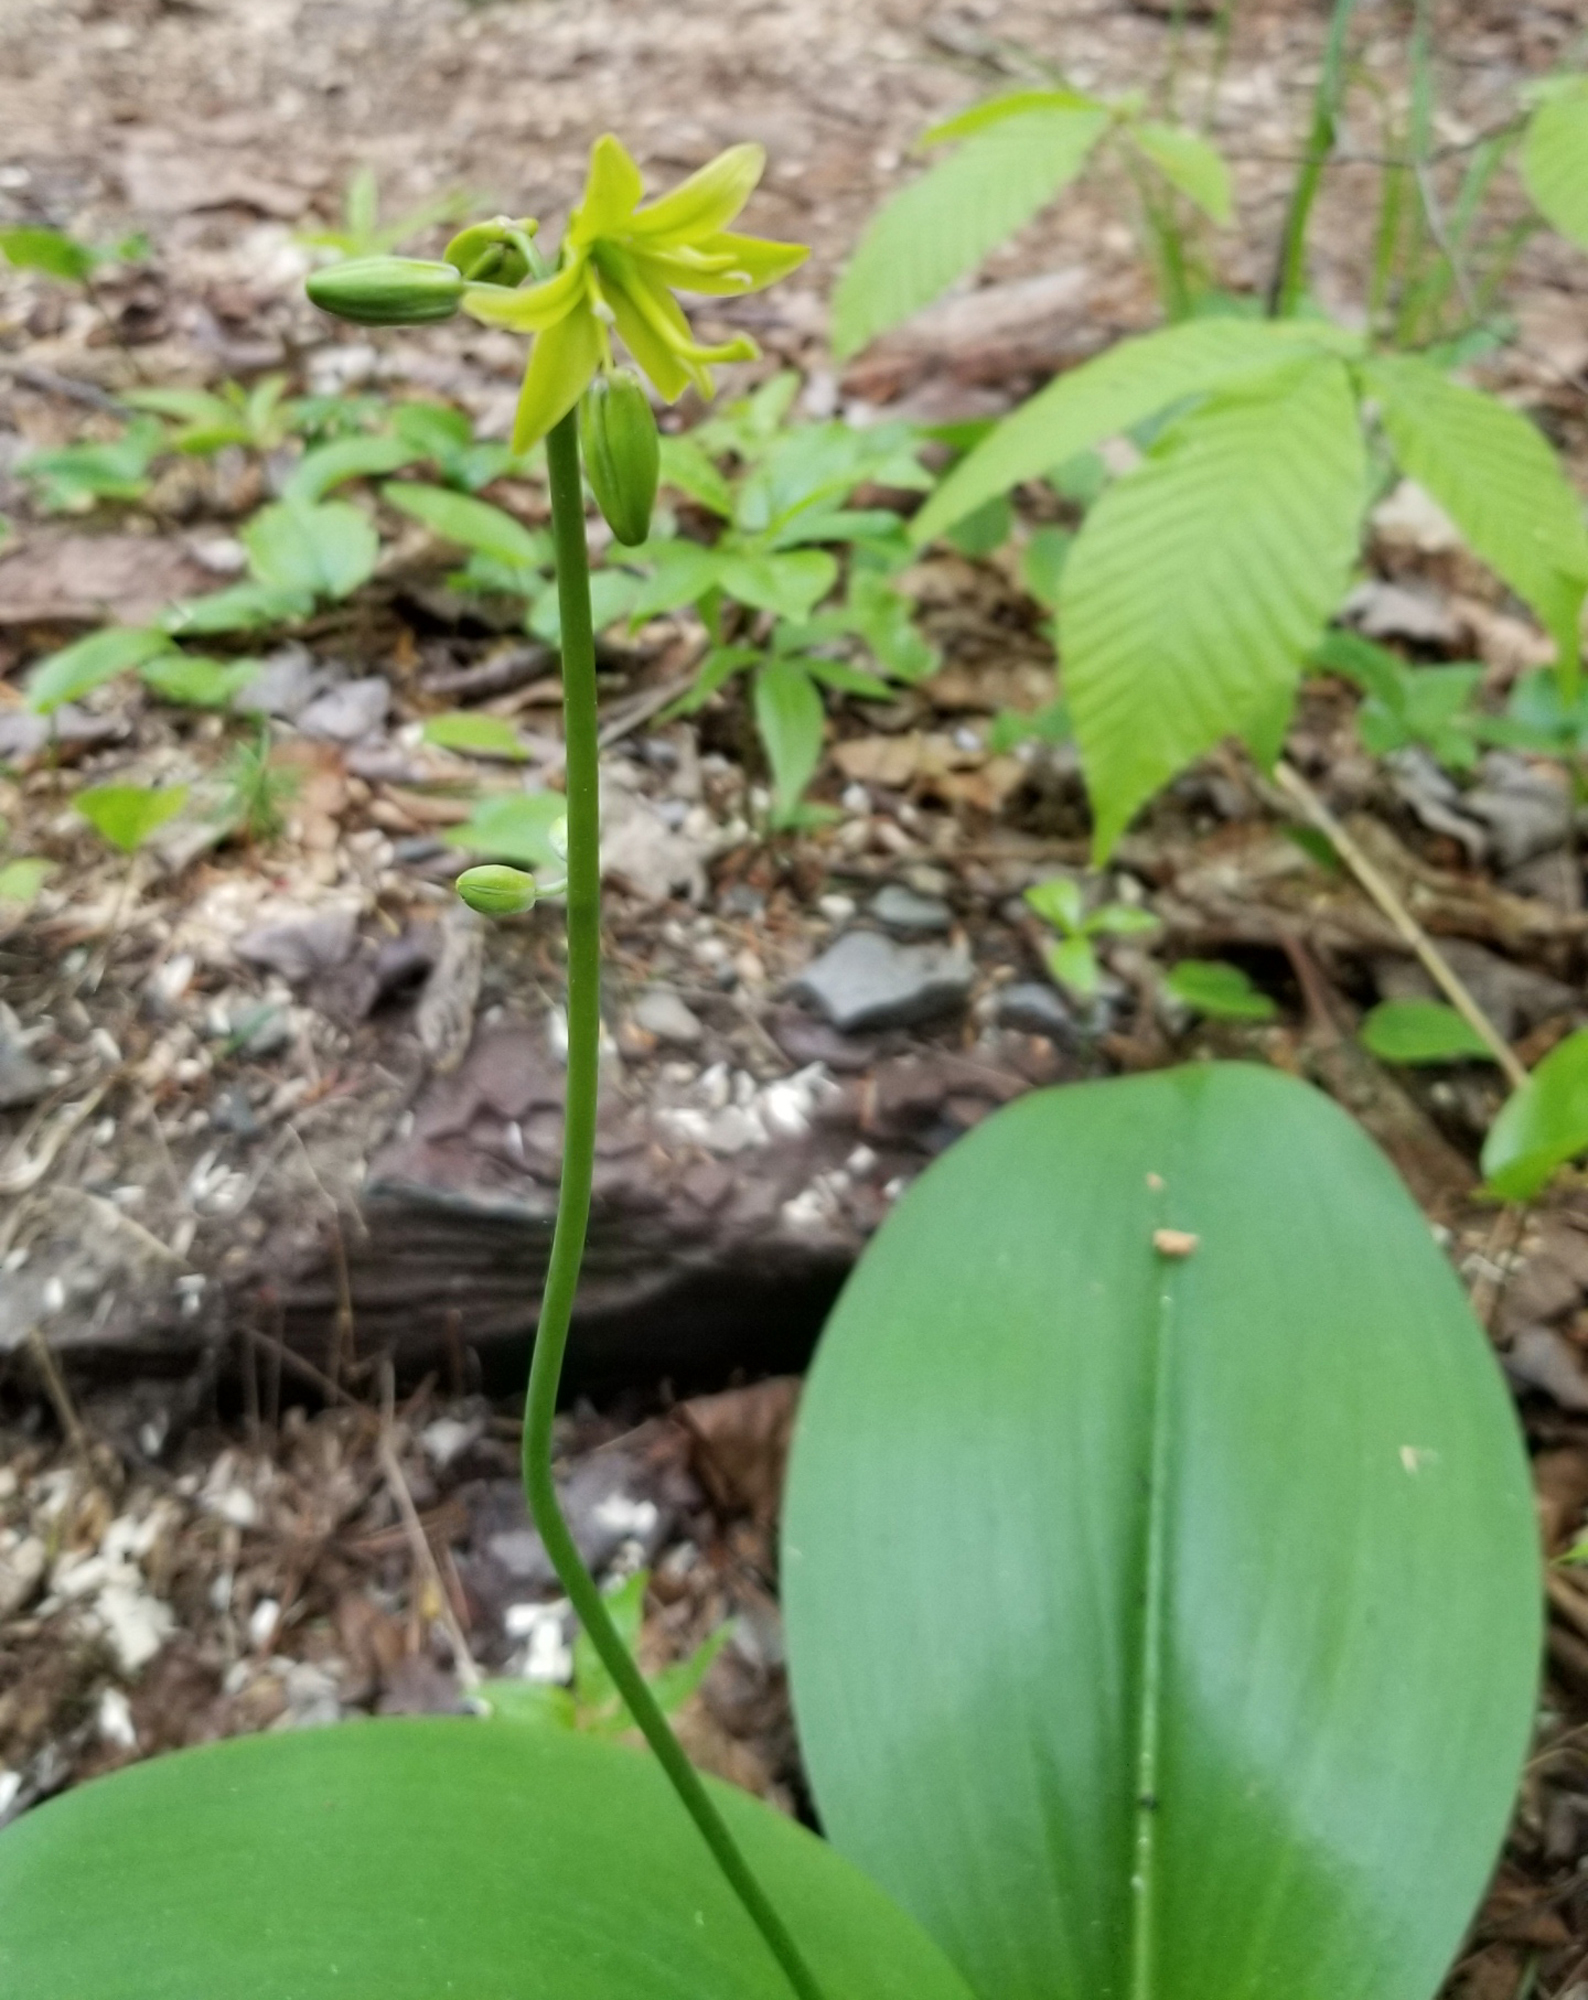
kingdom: Plantae
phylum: Tracheophyta
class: Liliopsida
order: Liliales
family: Liliaceae
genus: Clintonia
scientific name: Clintonia borealis
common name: Yellow clintonia
